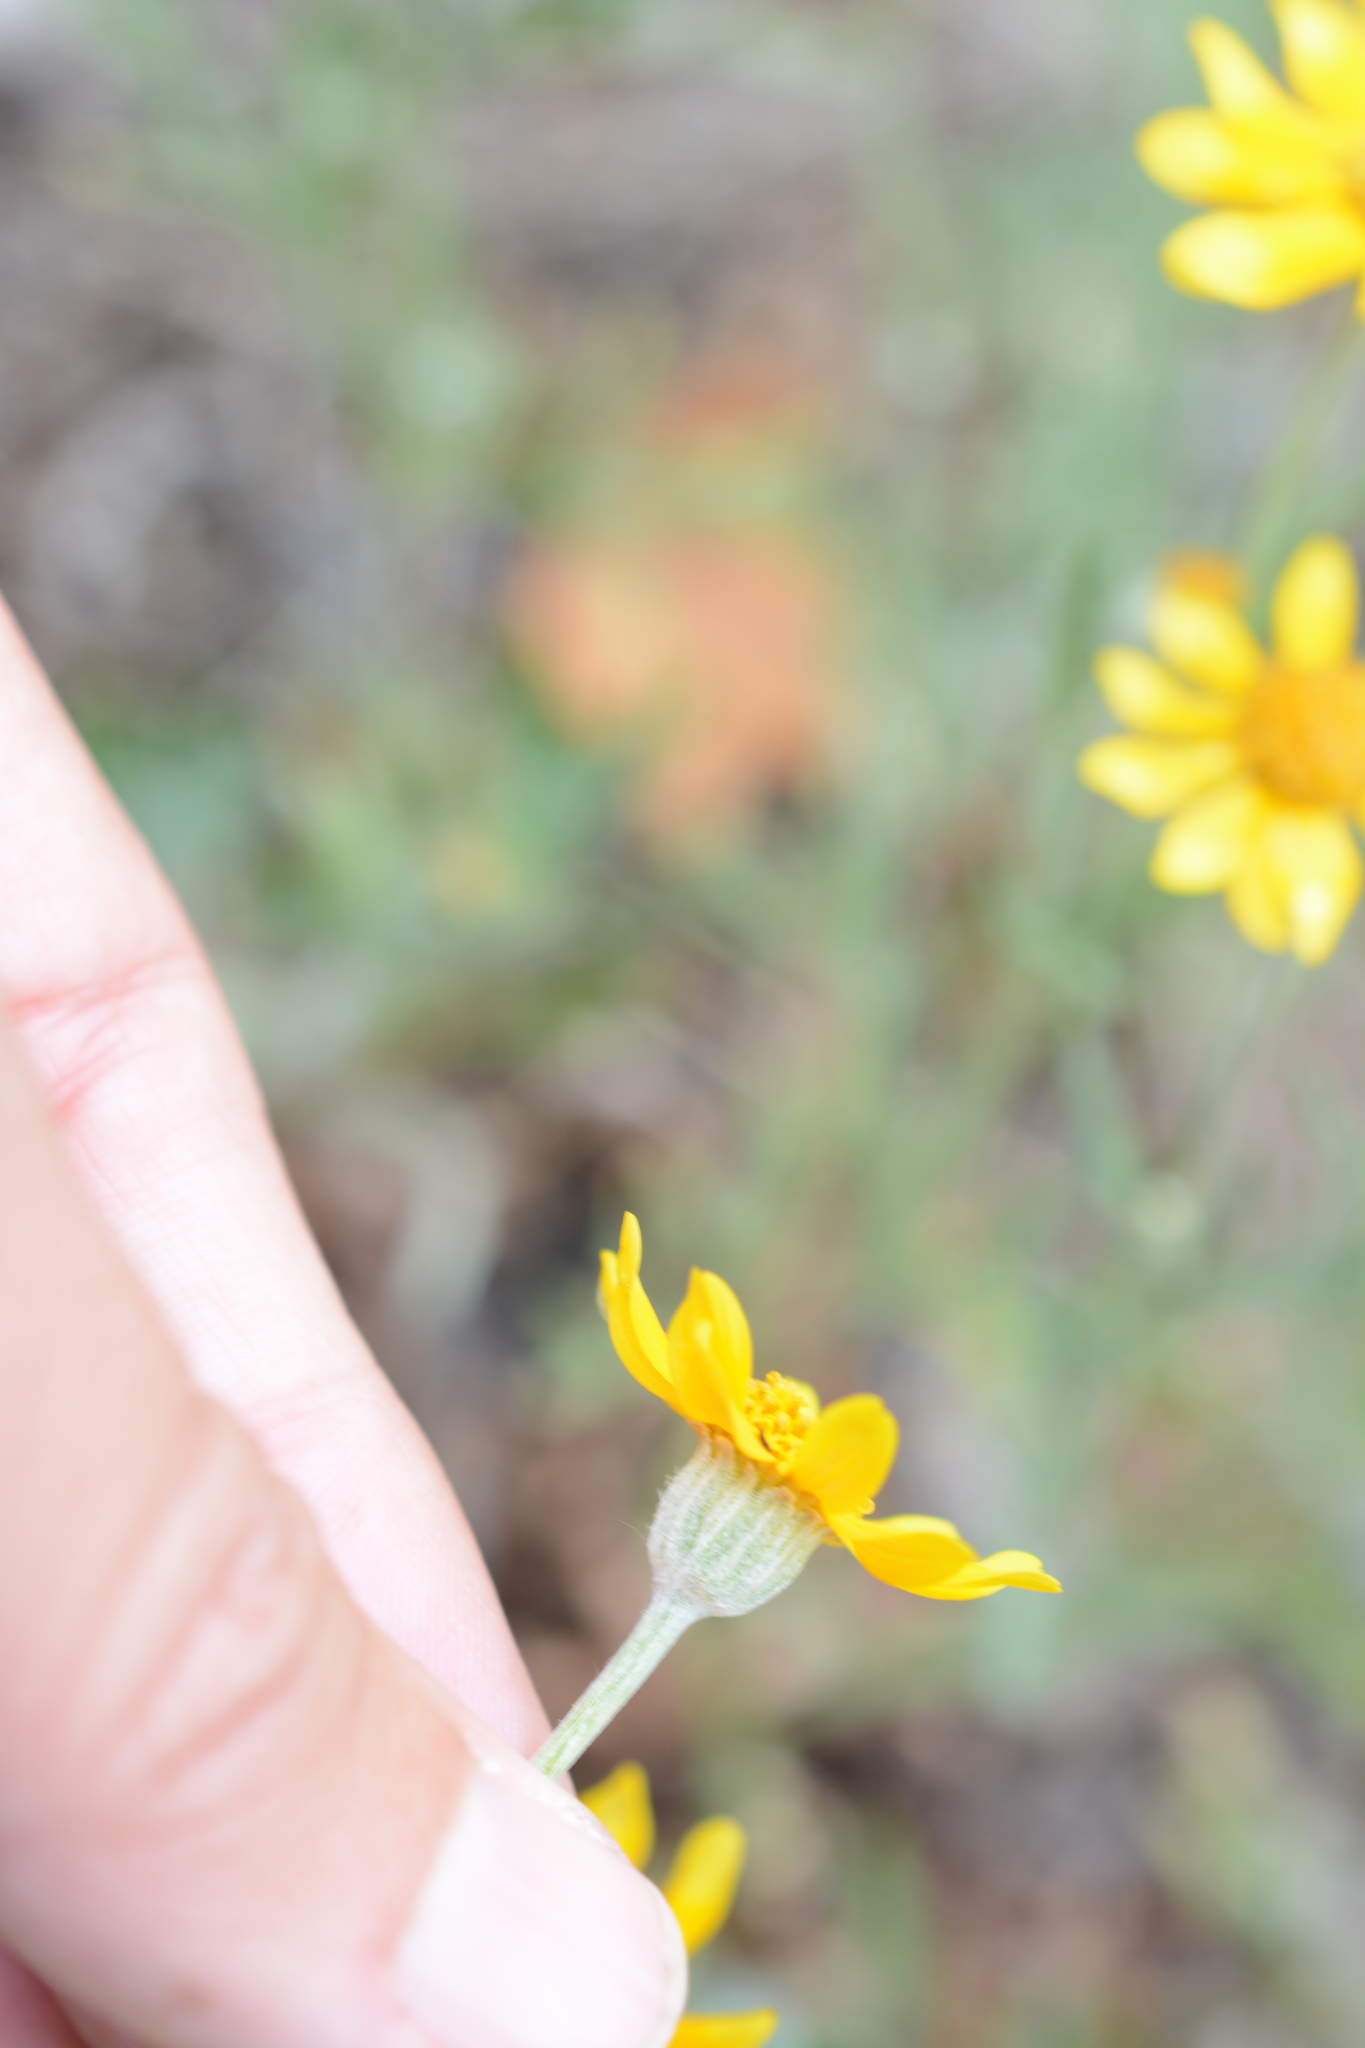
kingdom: Plantae
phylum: Tracheophyta
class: Magnoliopsida
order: Asterales
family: Asteraceae
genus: Eriophyllum
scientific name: Eriophyllum lanatum
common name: Common woolly-sunflower
